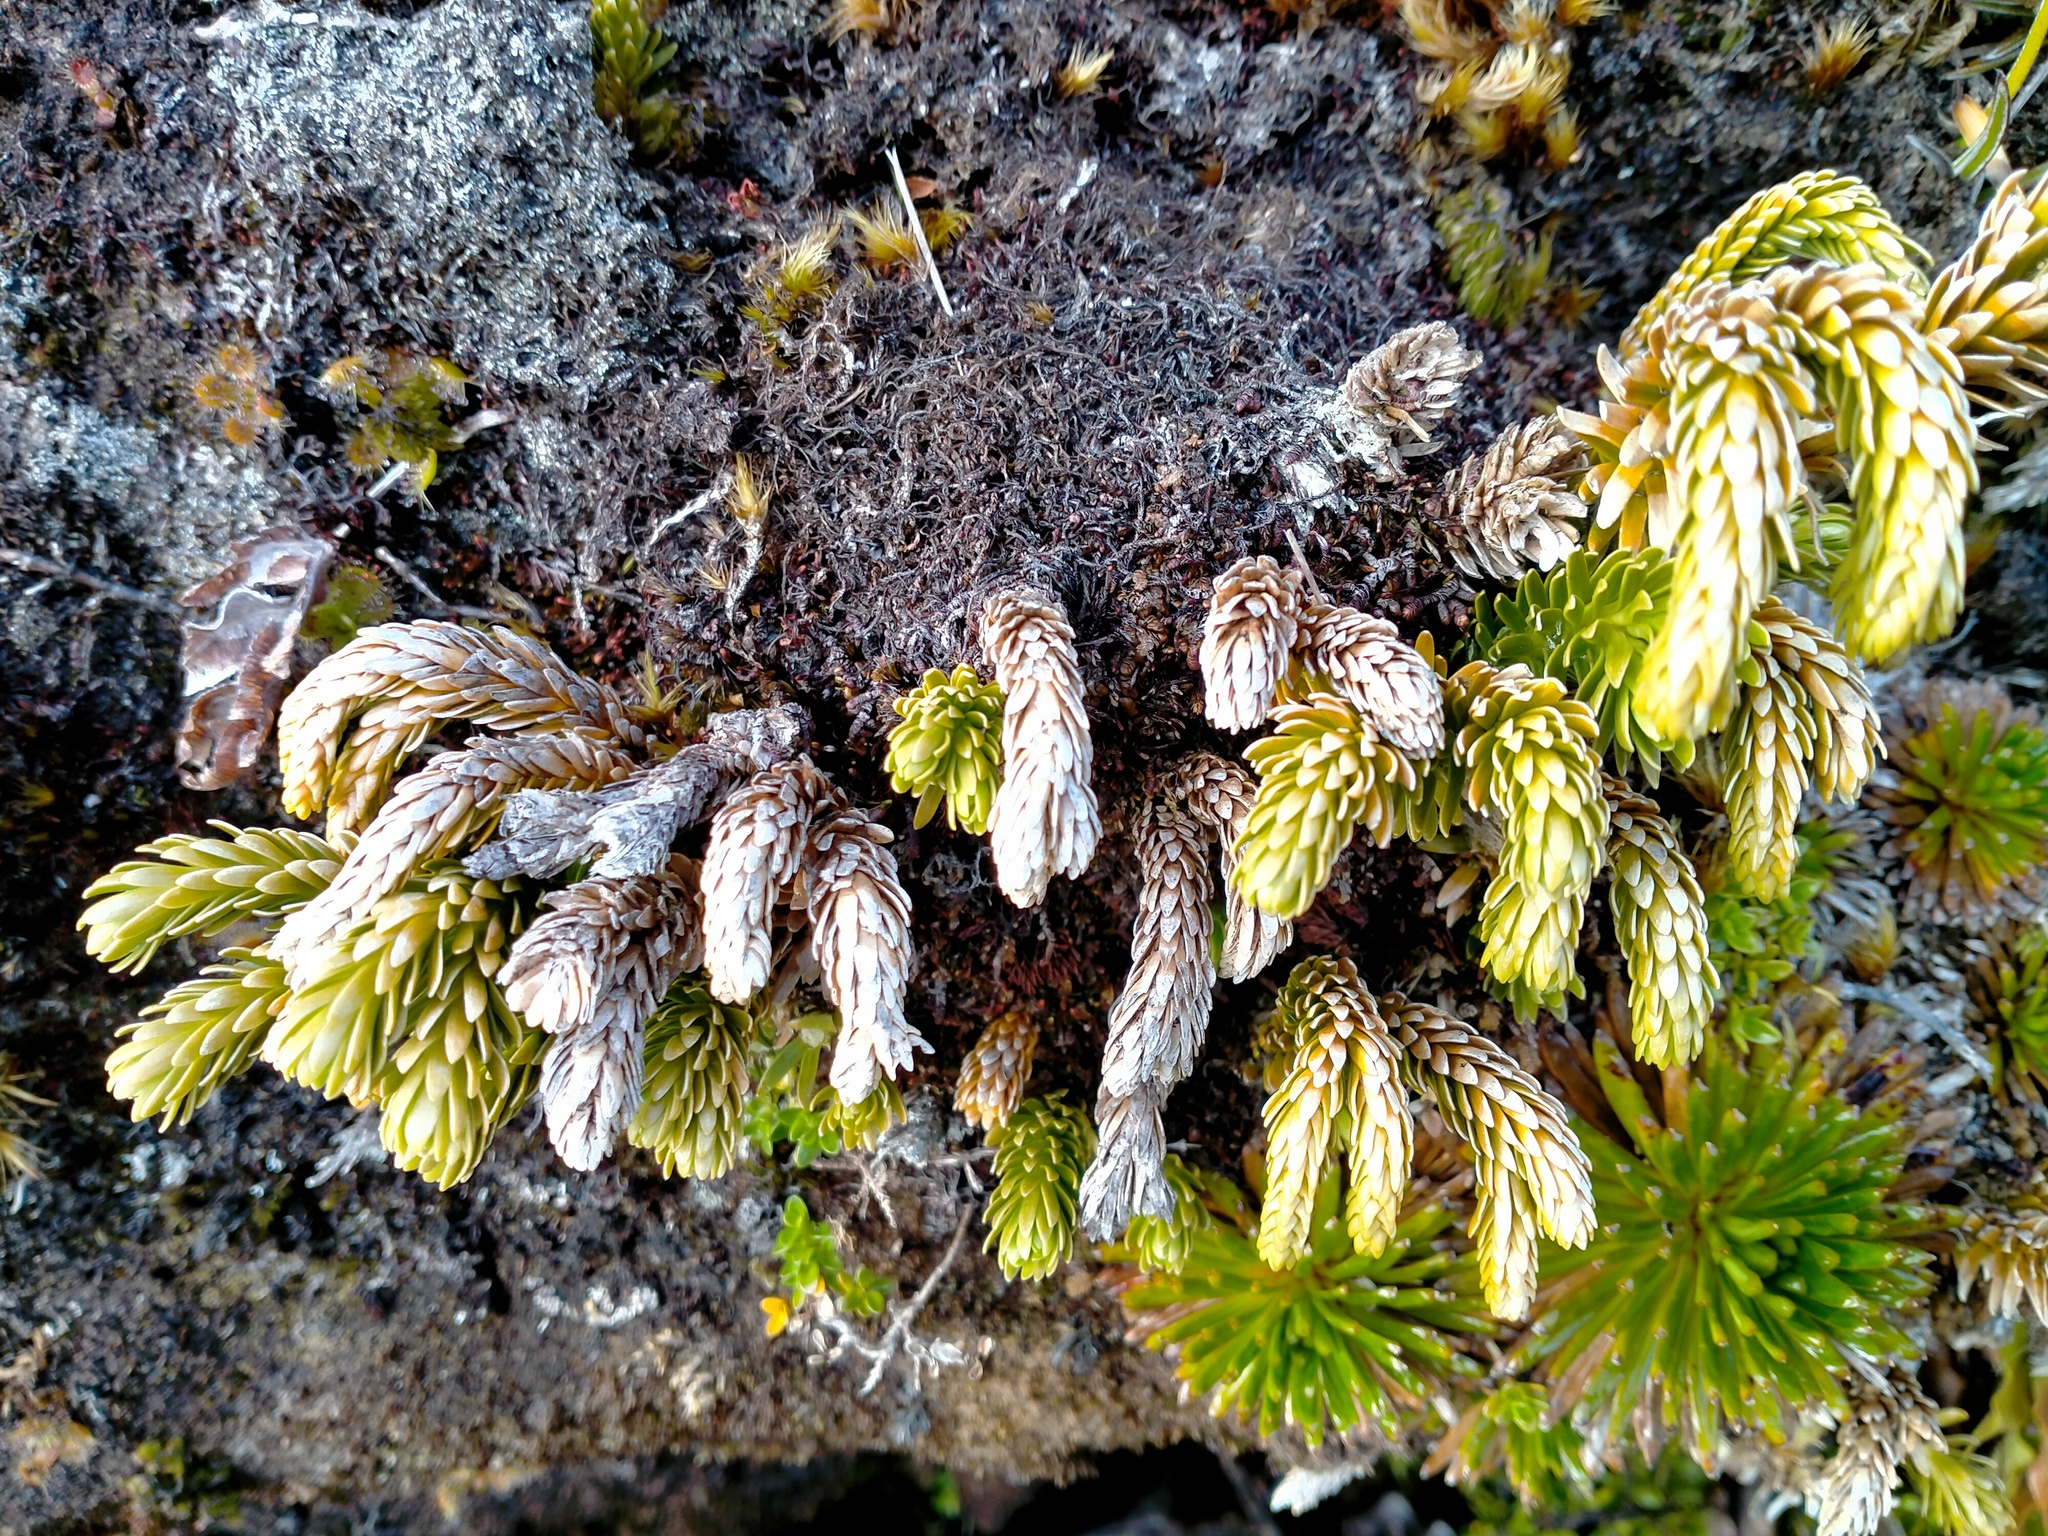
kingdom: Plantae
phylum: Tracheophyta
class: Lycopodiopsida
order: Lycopodiales
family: Lycopodiaceae
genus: Phlegmariurus
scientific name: Phlegmariurus varius
